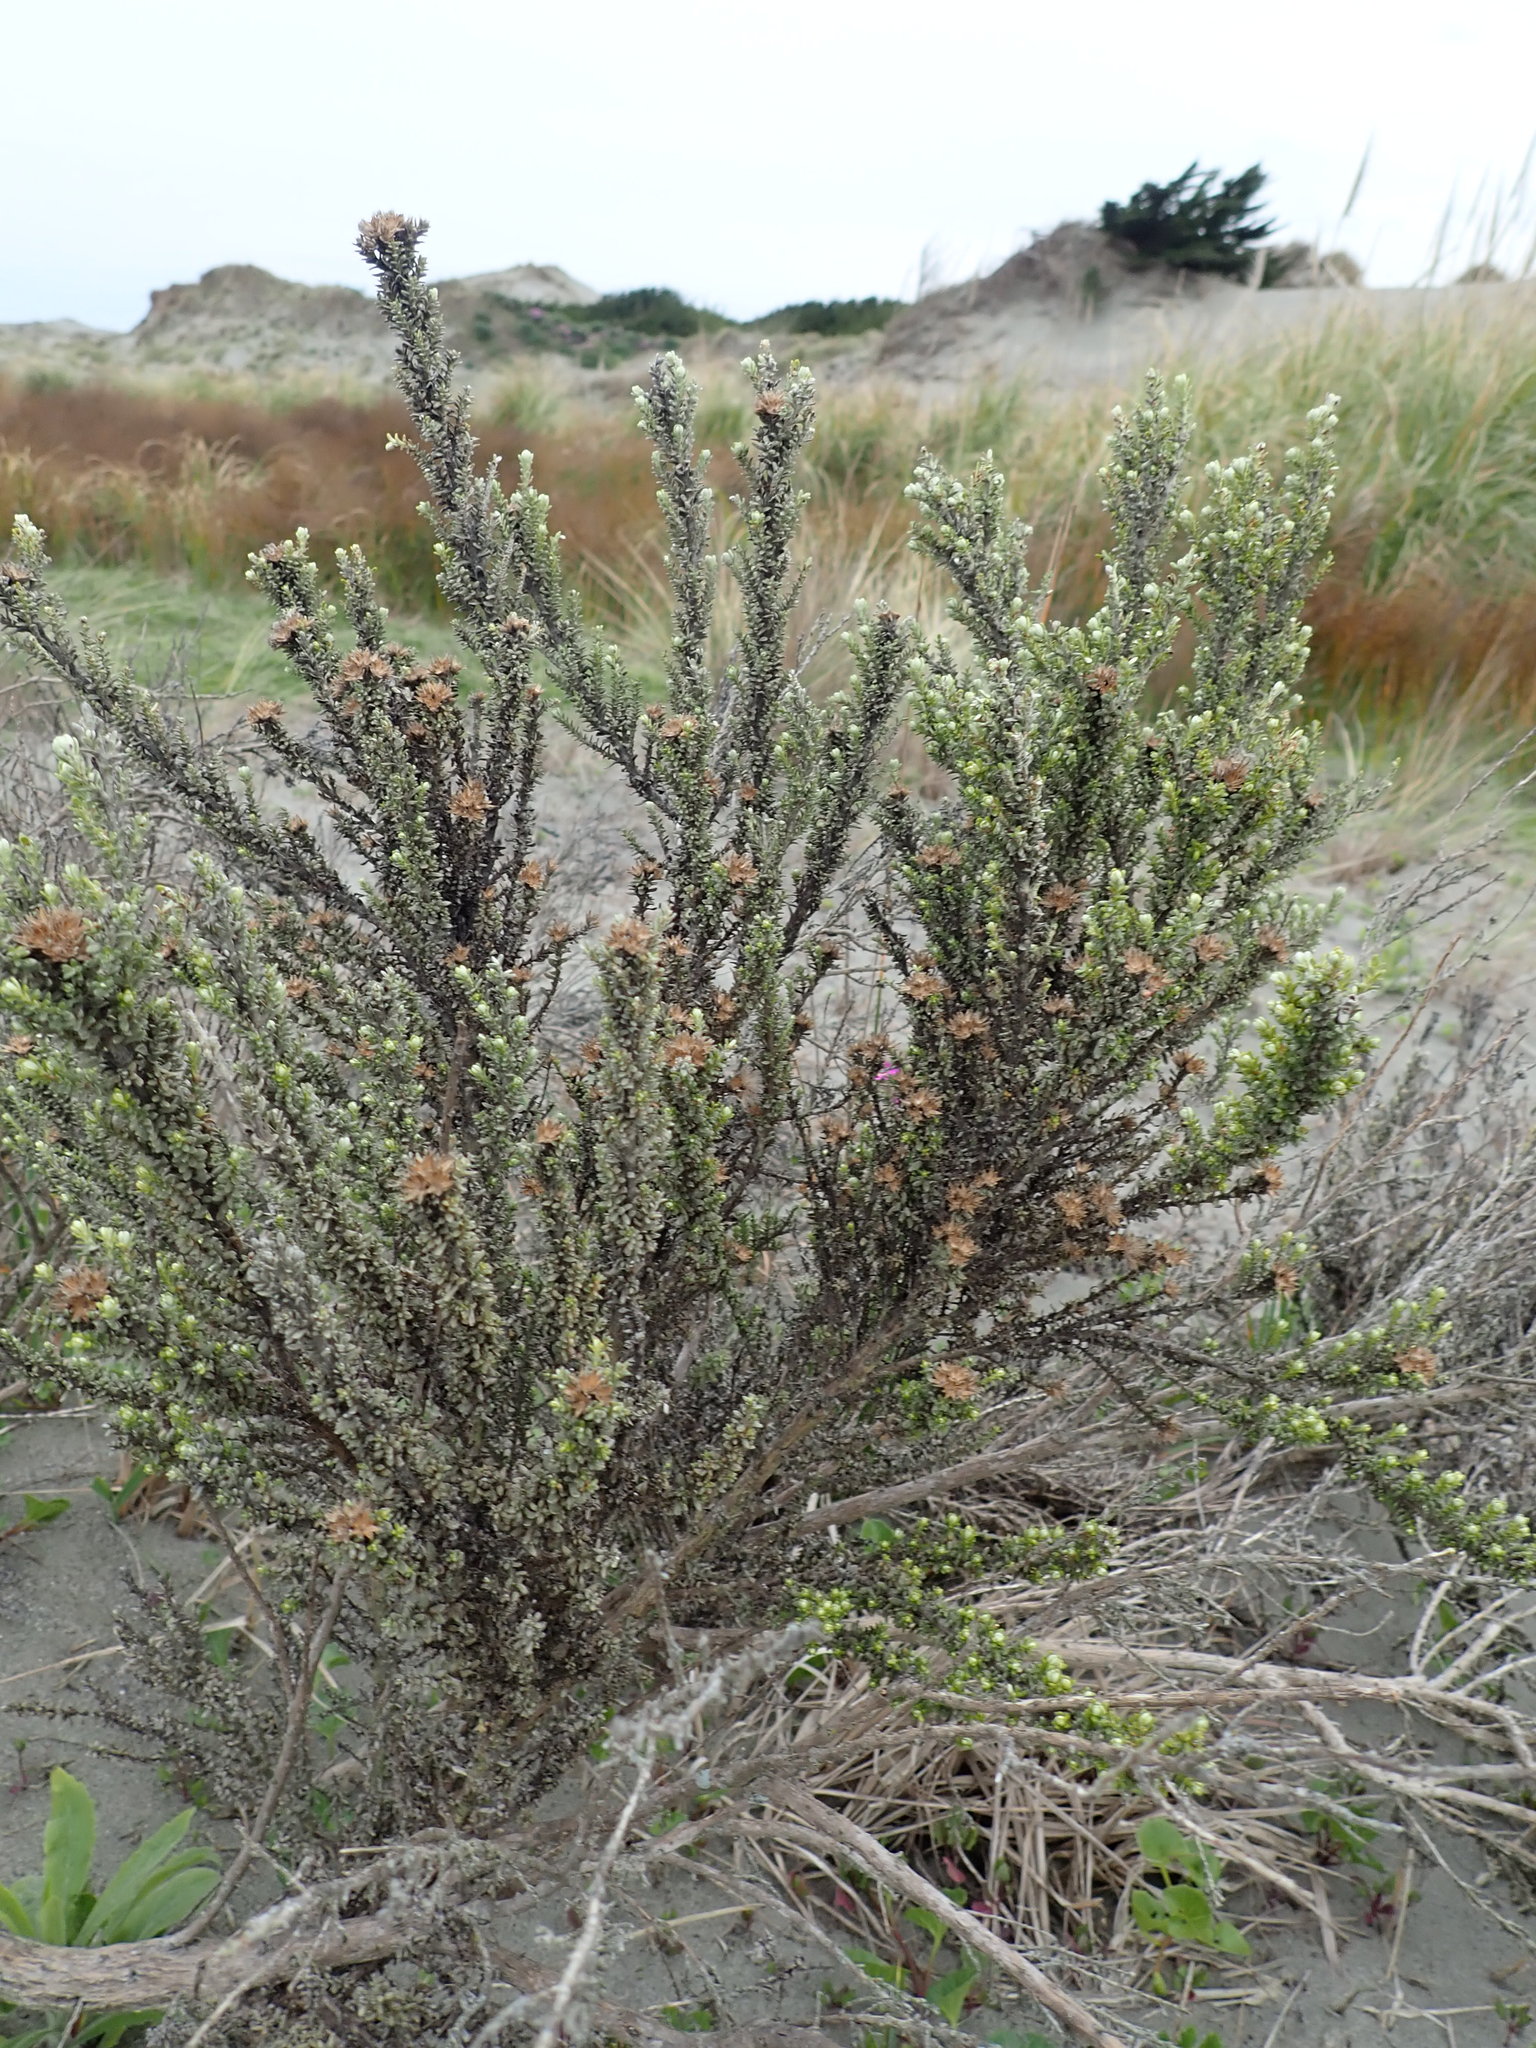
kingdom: Plantae
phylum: Tracheophyta
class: Magnoliopsida
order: Asterales
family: Asteraceae
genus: Ozothamnus
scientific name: Ozothamnus leptophyllus
